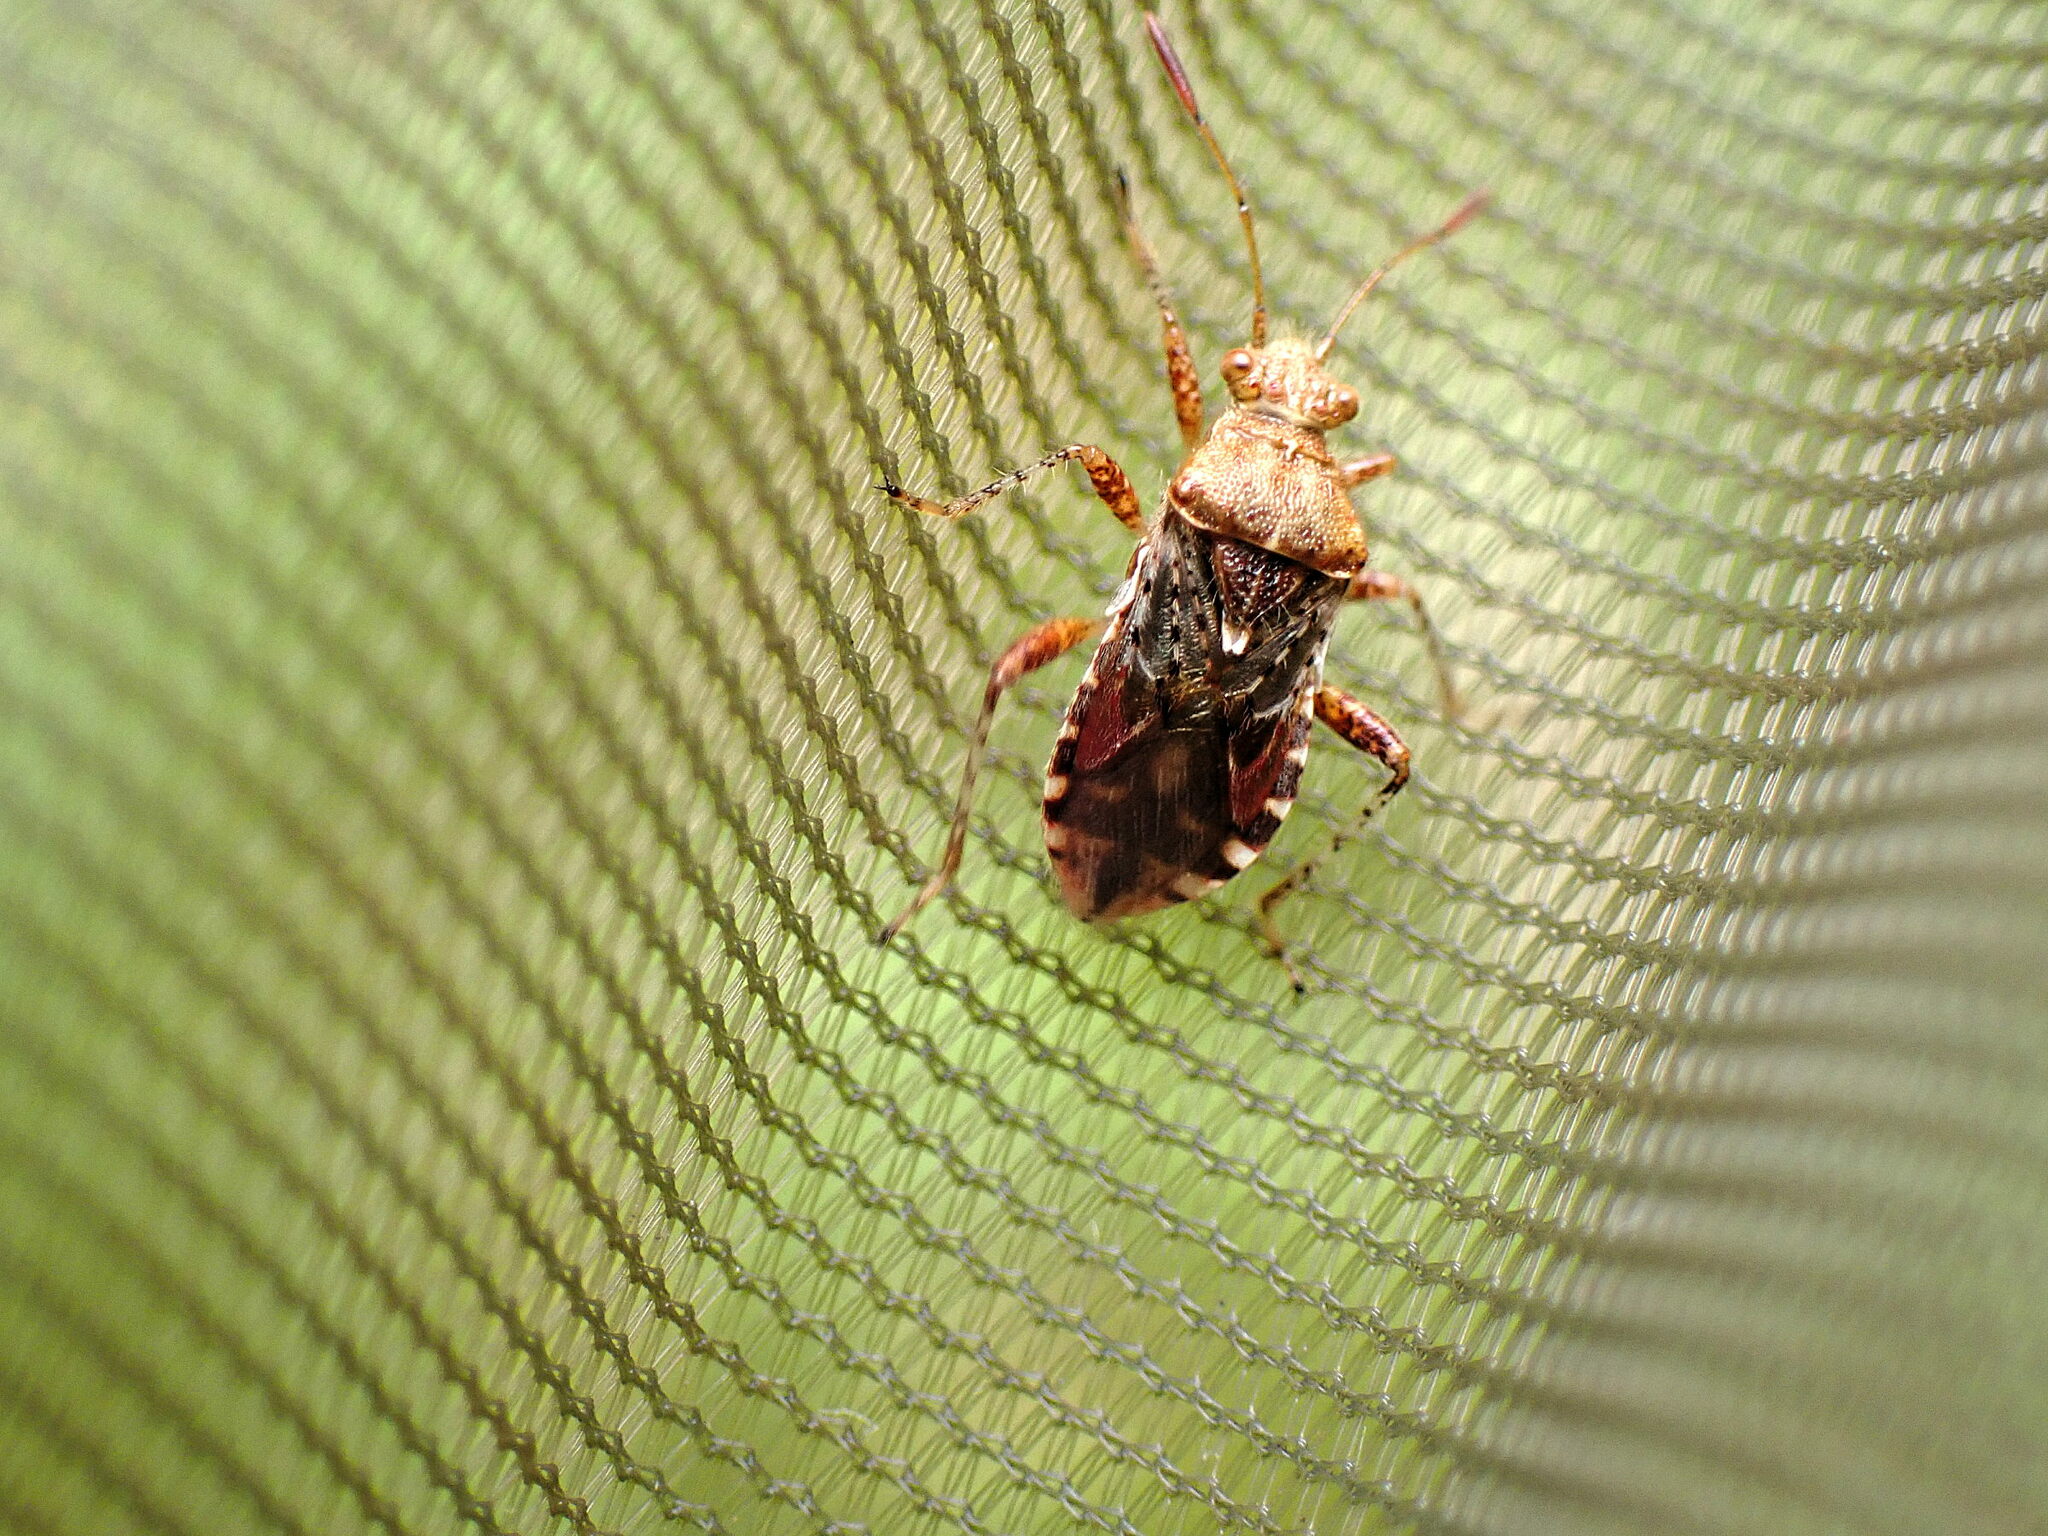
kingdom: Animalia
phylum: Arthropoda
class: Insecta
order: Hemiptera
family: Rhopalidae
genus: Rhopalus
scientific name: Rhopalus subrufus
